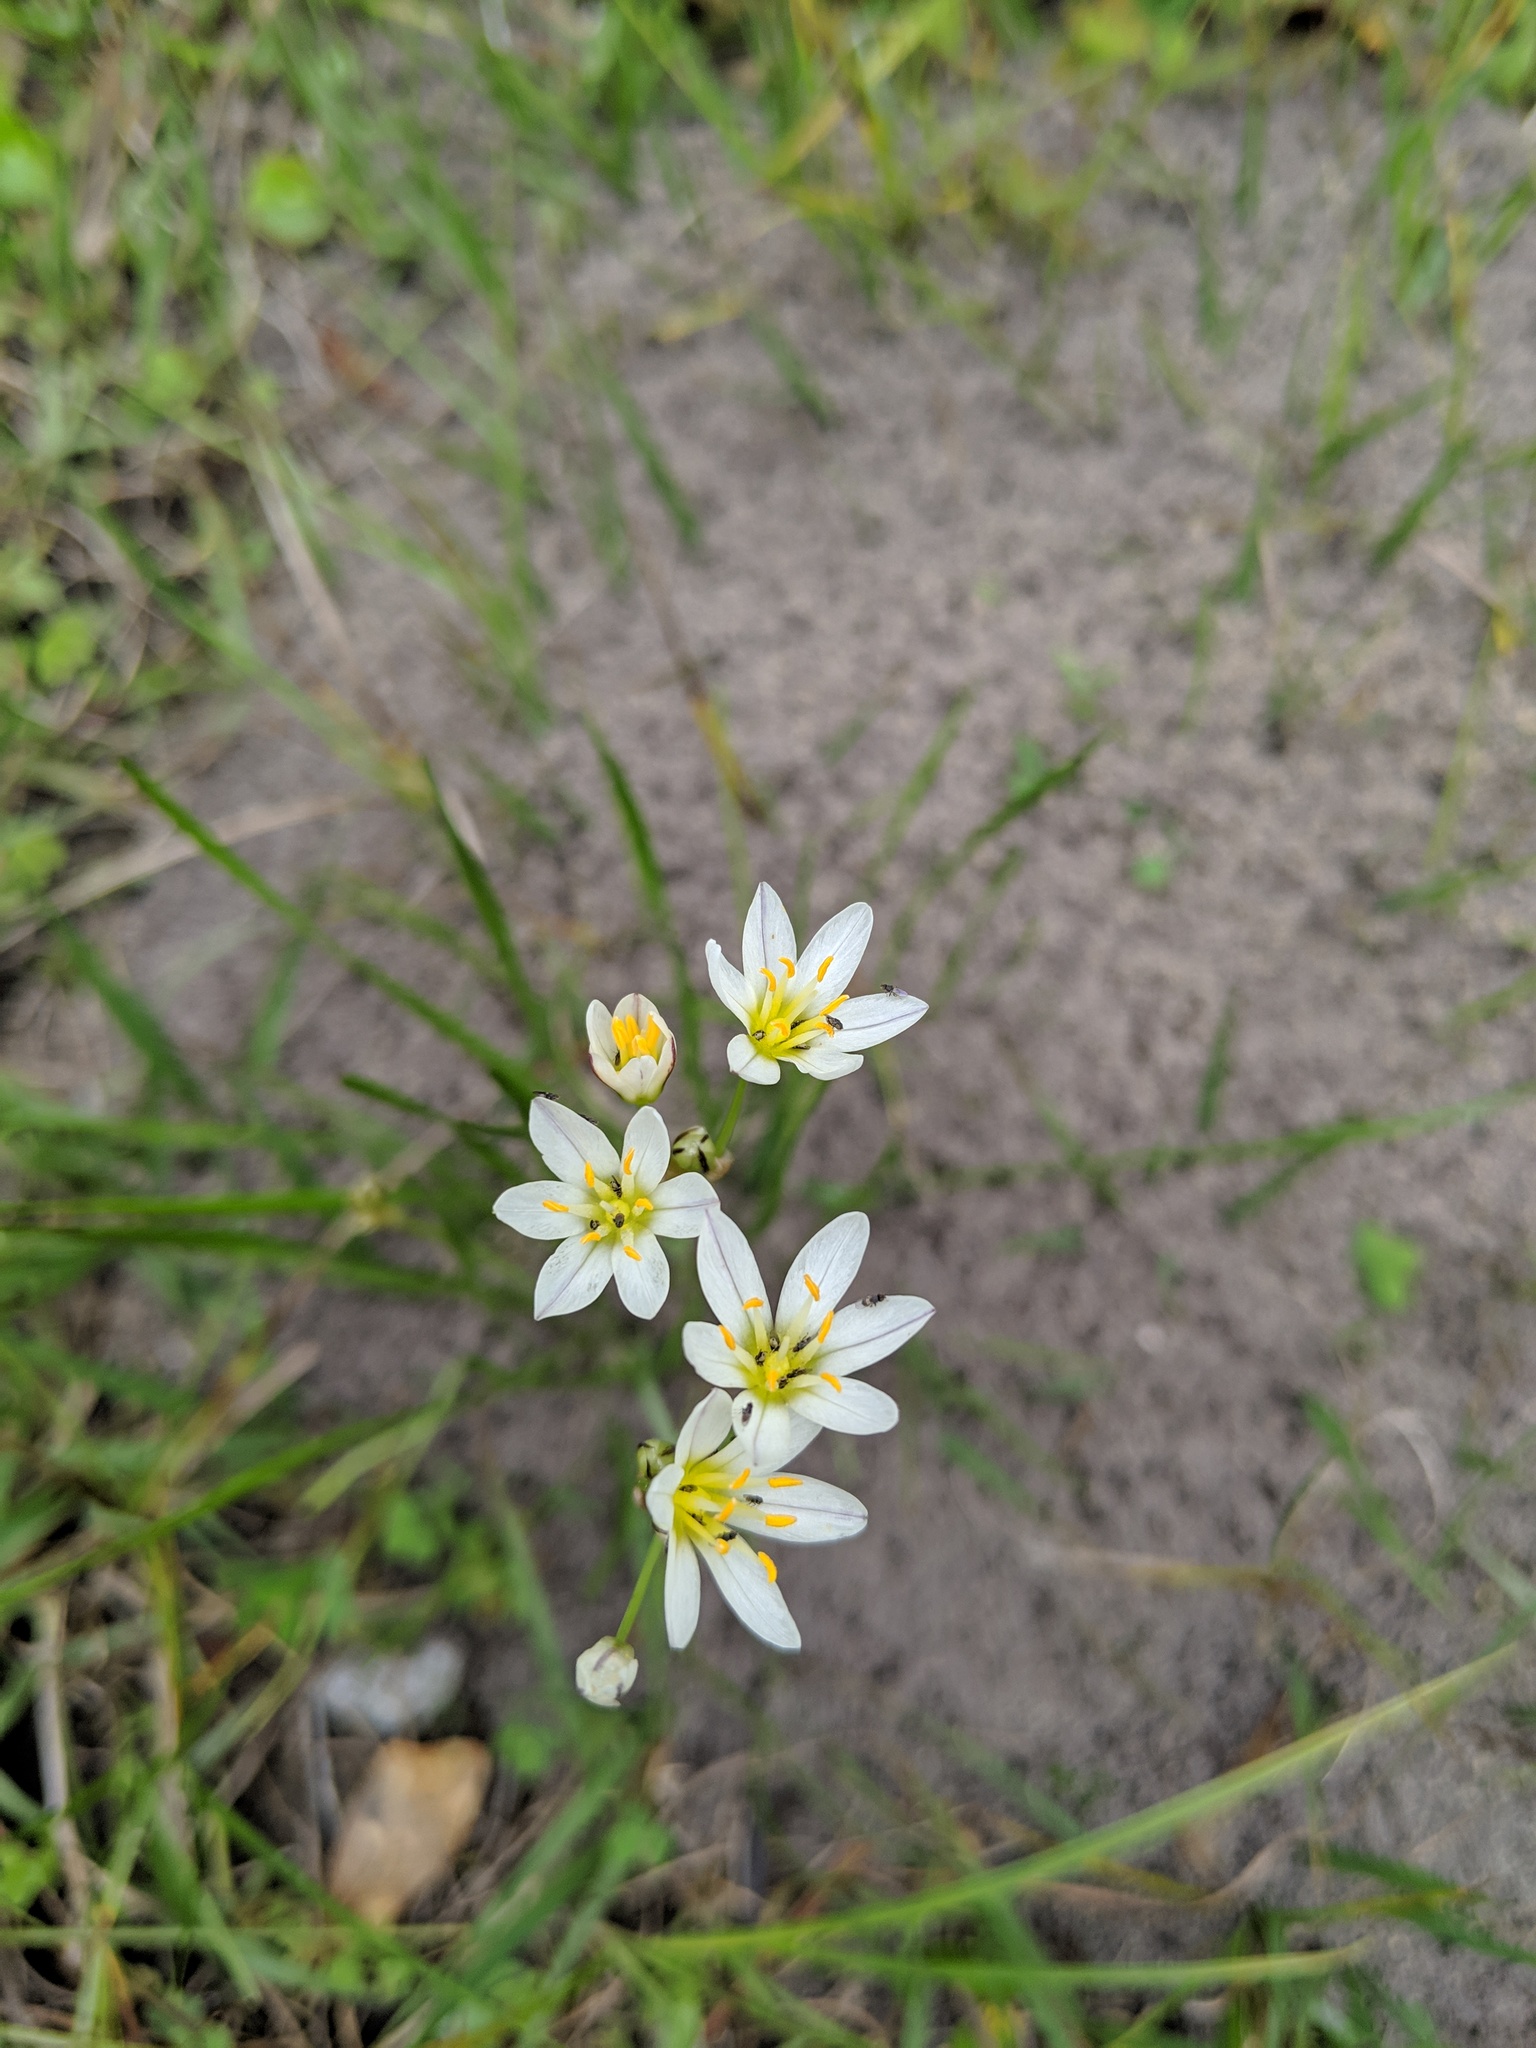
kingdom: Plantae
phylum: Tracheophyta
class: Liliopsida
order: Asparagales
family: Amaryllidaceae
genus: Nothoscordum
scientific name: Nothoscordum bivalve
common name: Crow-poison
